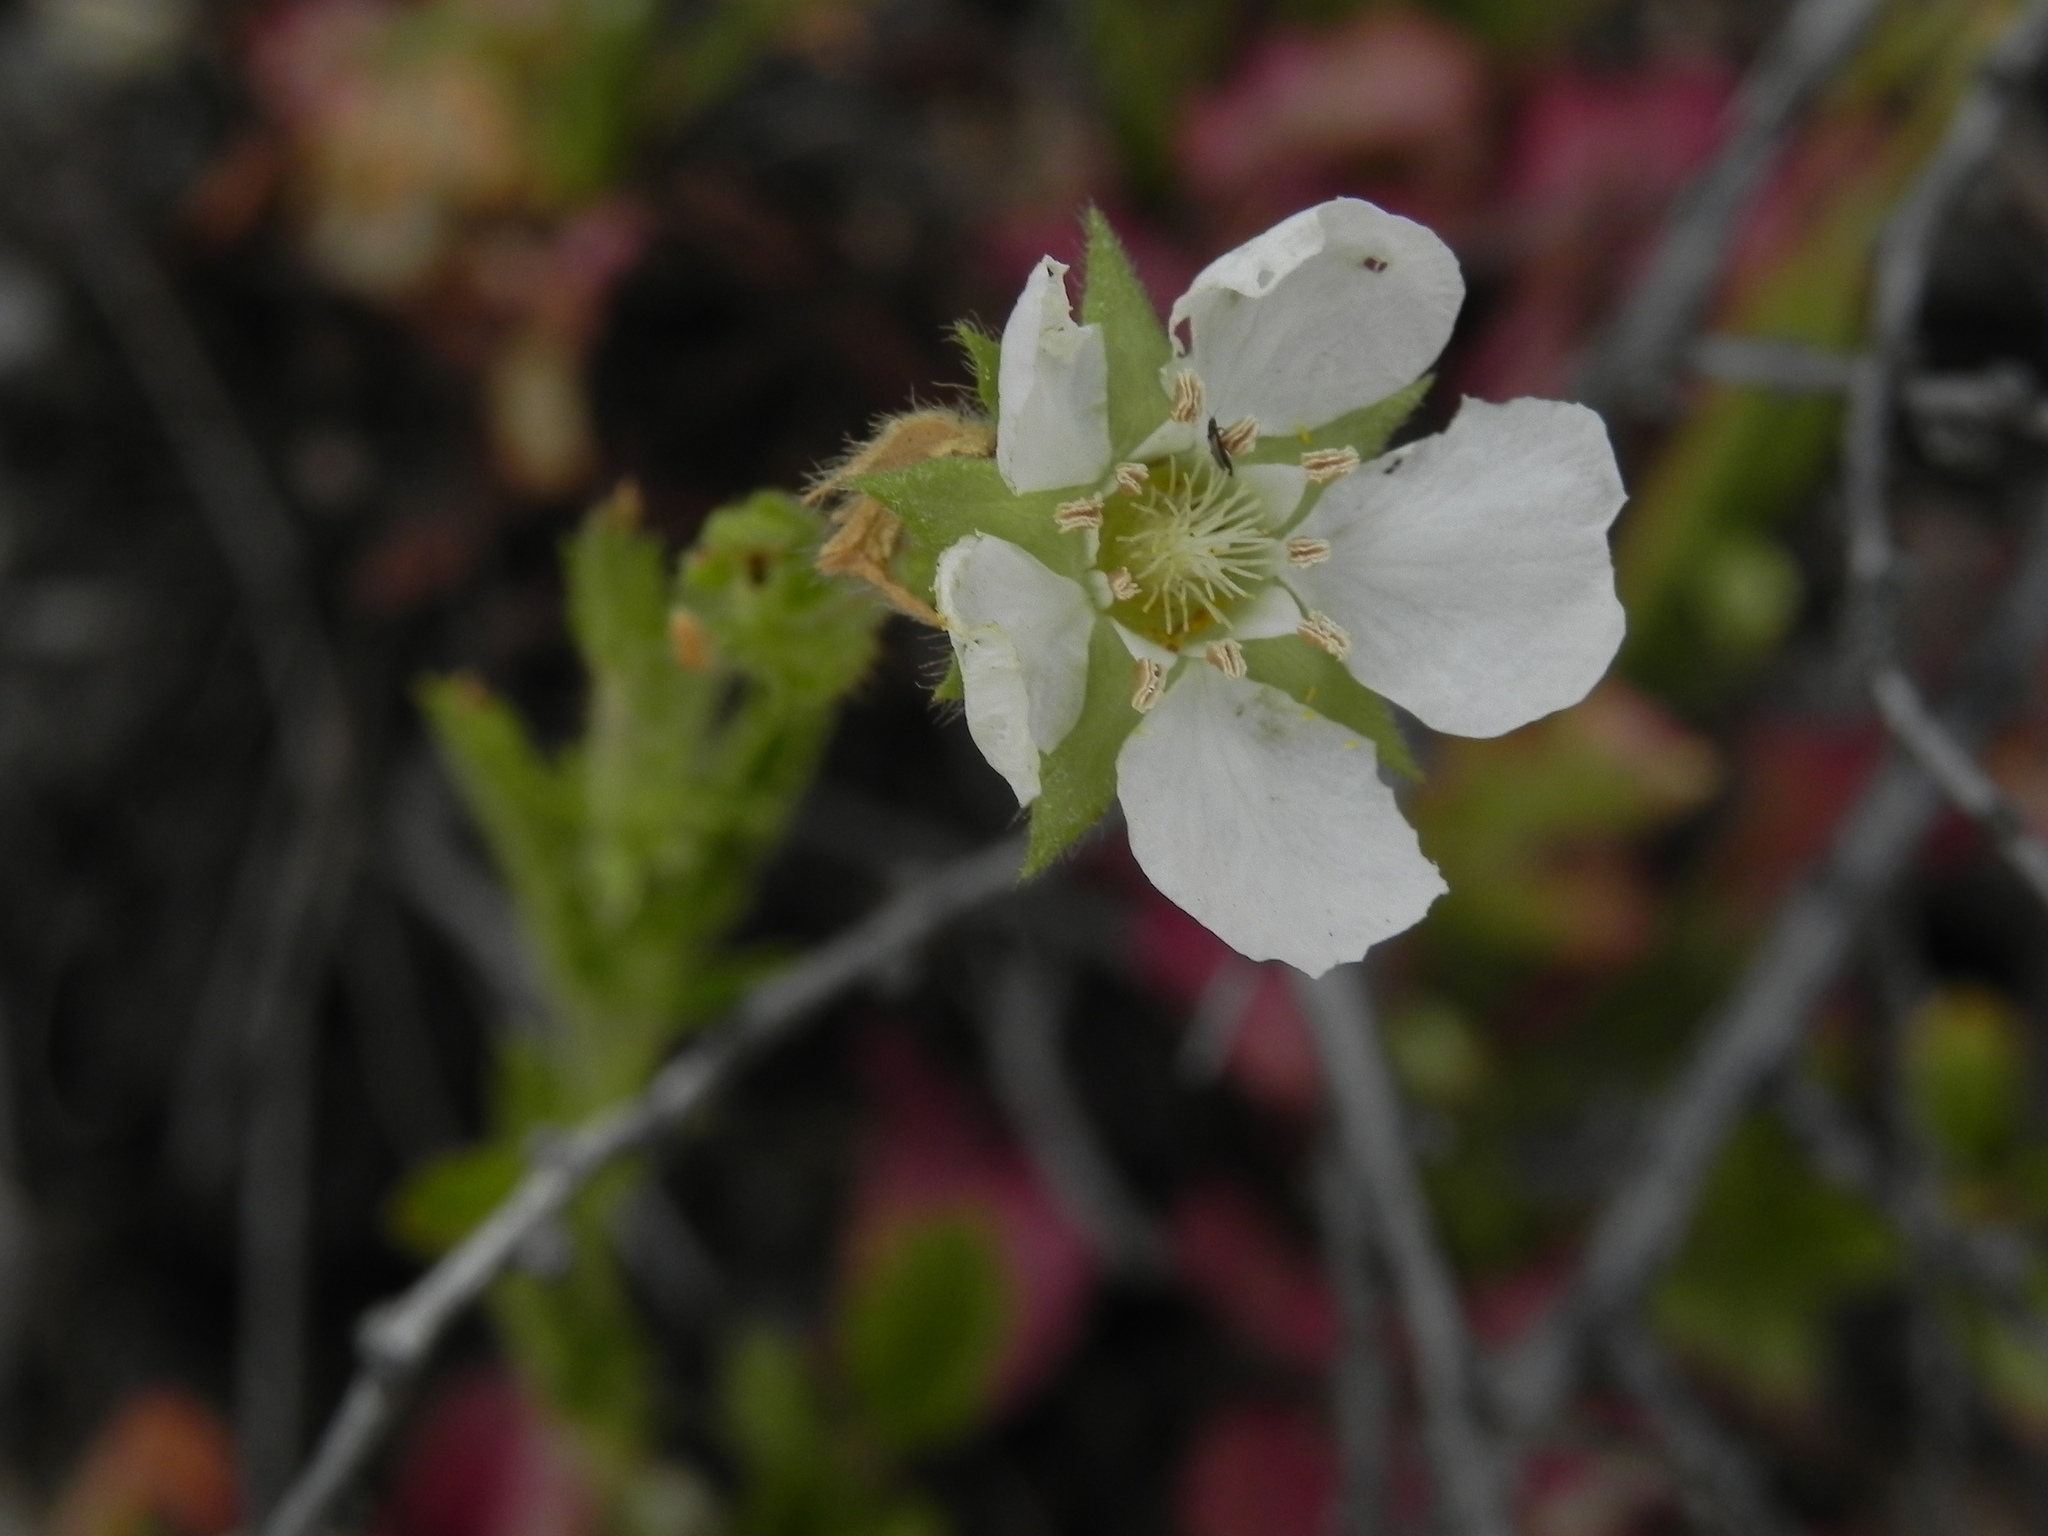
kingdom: Plantae
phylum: Tracheophyta
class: Magnoliopsida
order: Rosales
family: Rosaceae
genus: Potentilla
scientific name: Potentilla truncata
